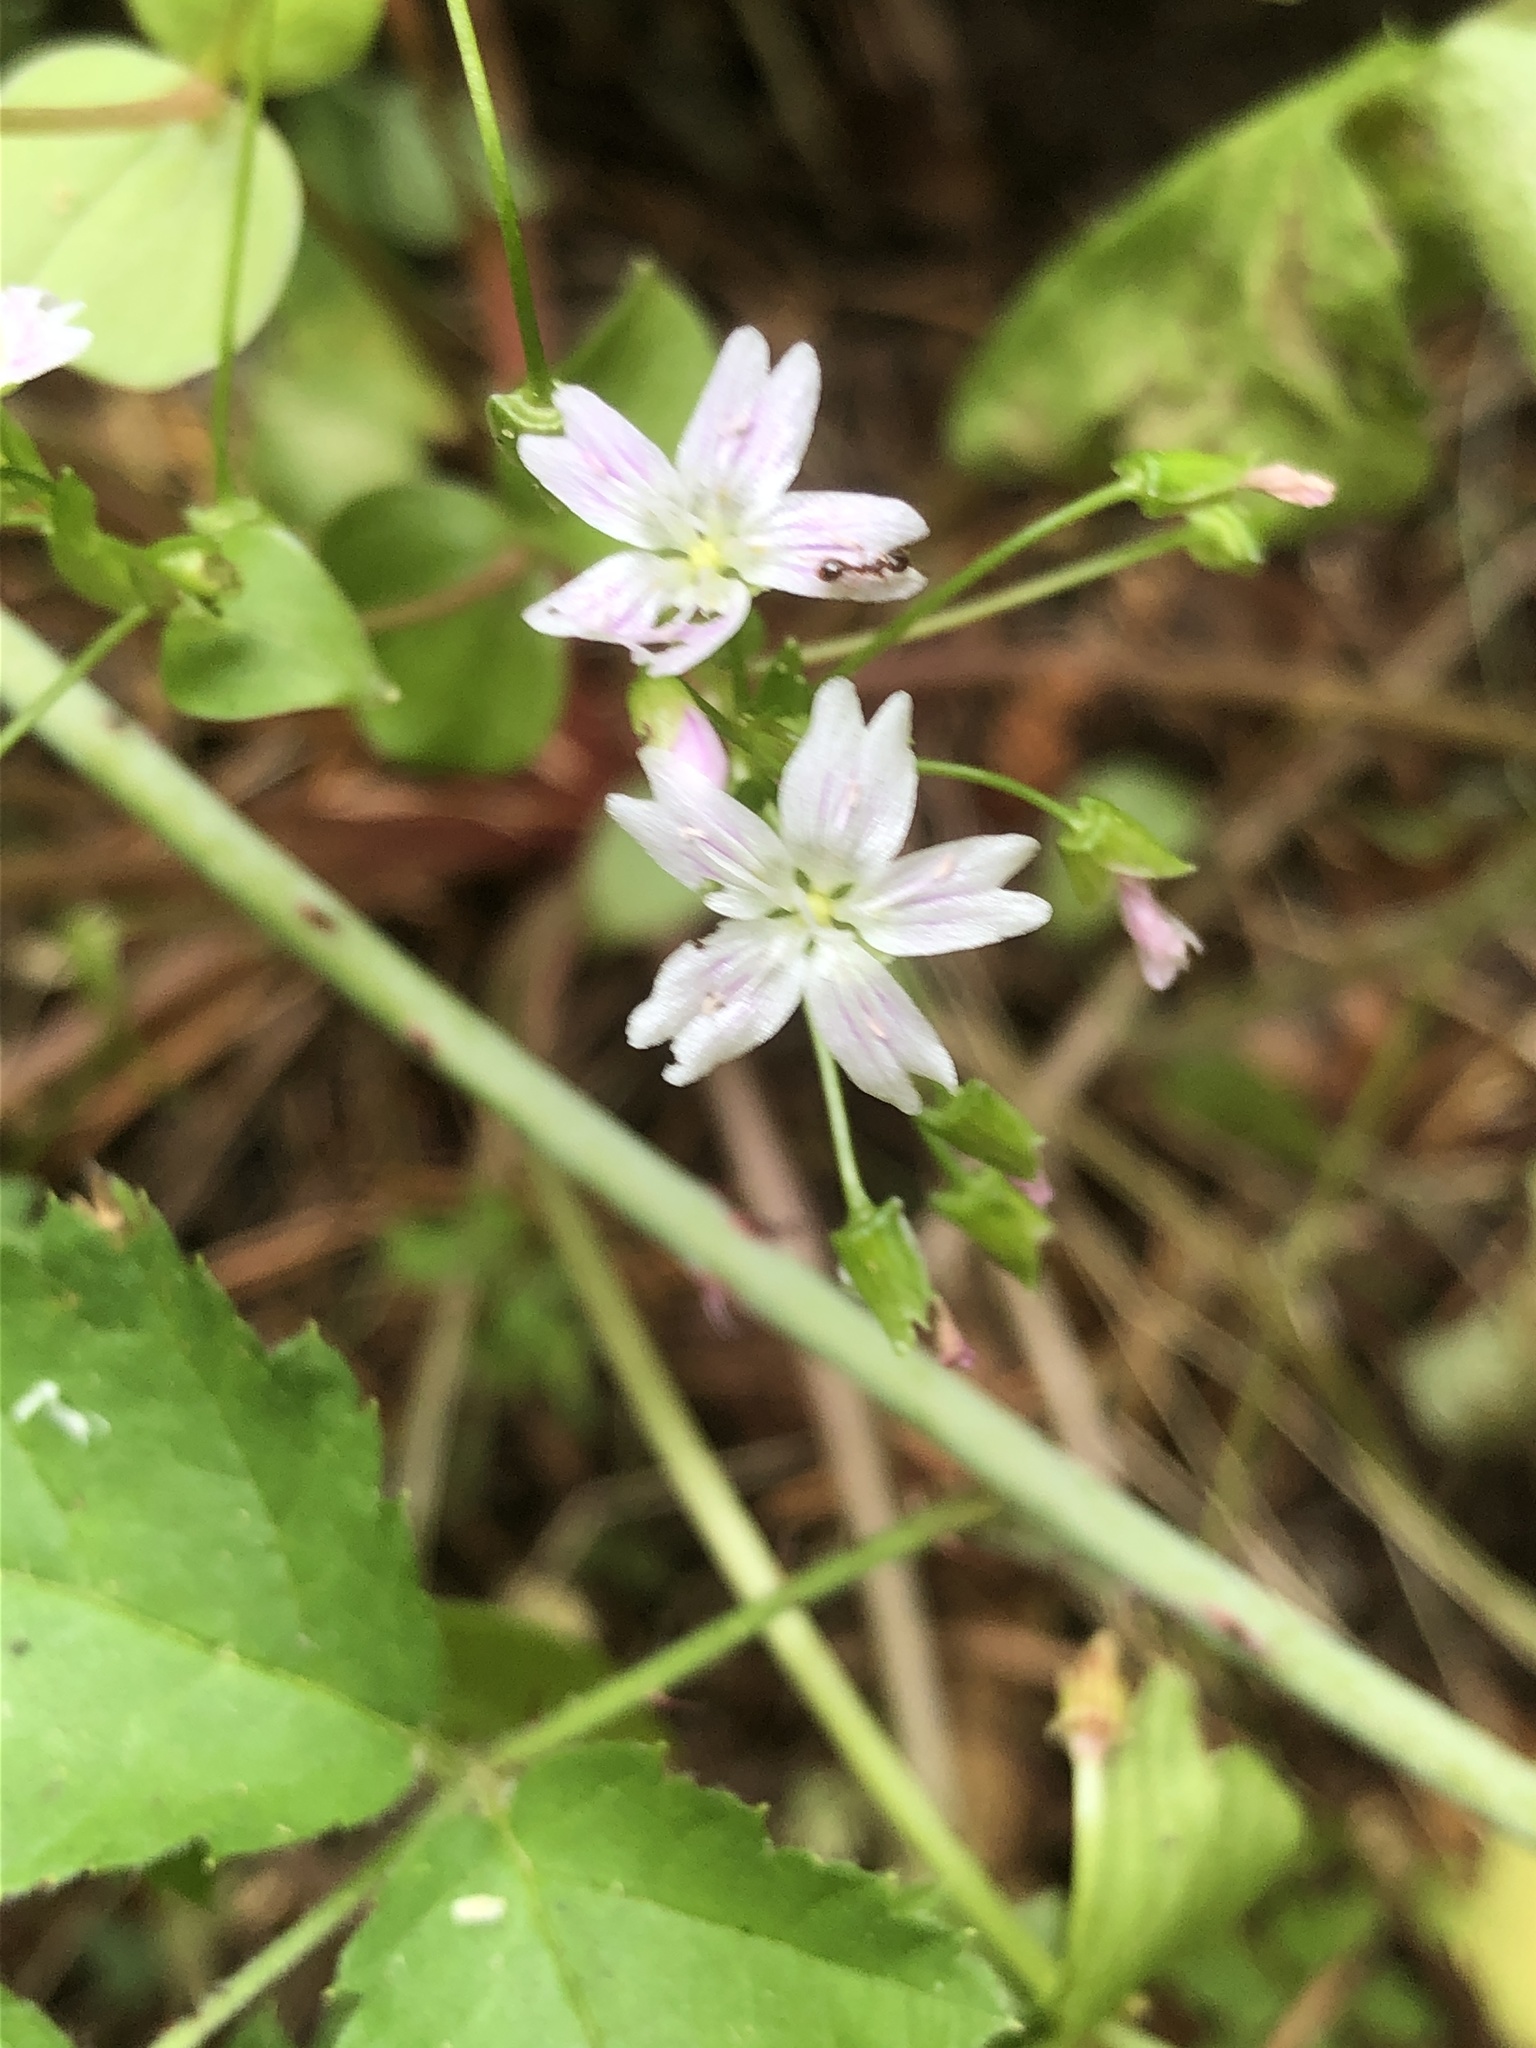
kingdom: Plantae
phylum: Tracheophyta
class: Magnoliopsida
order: Caryophyllales
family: Montiaceae
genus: Claytonia
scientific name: Claytonia sibirica
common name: Pink purslane
